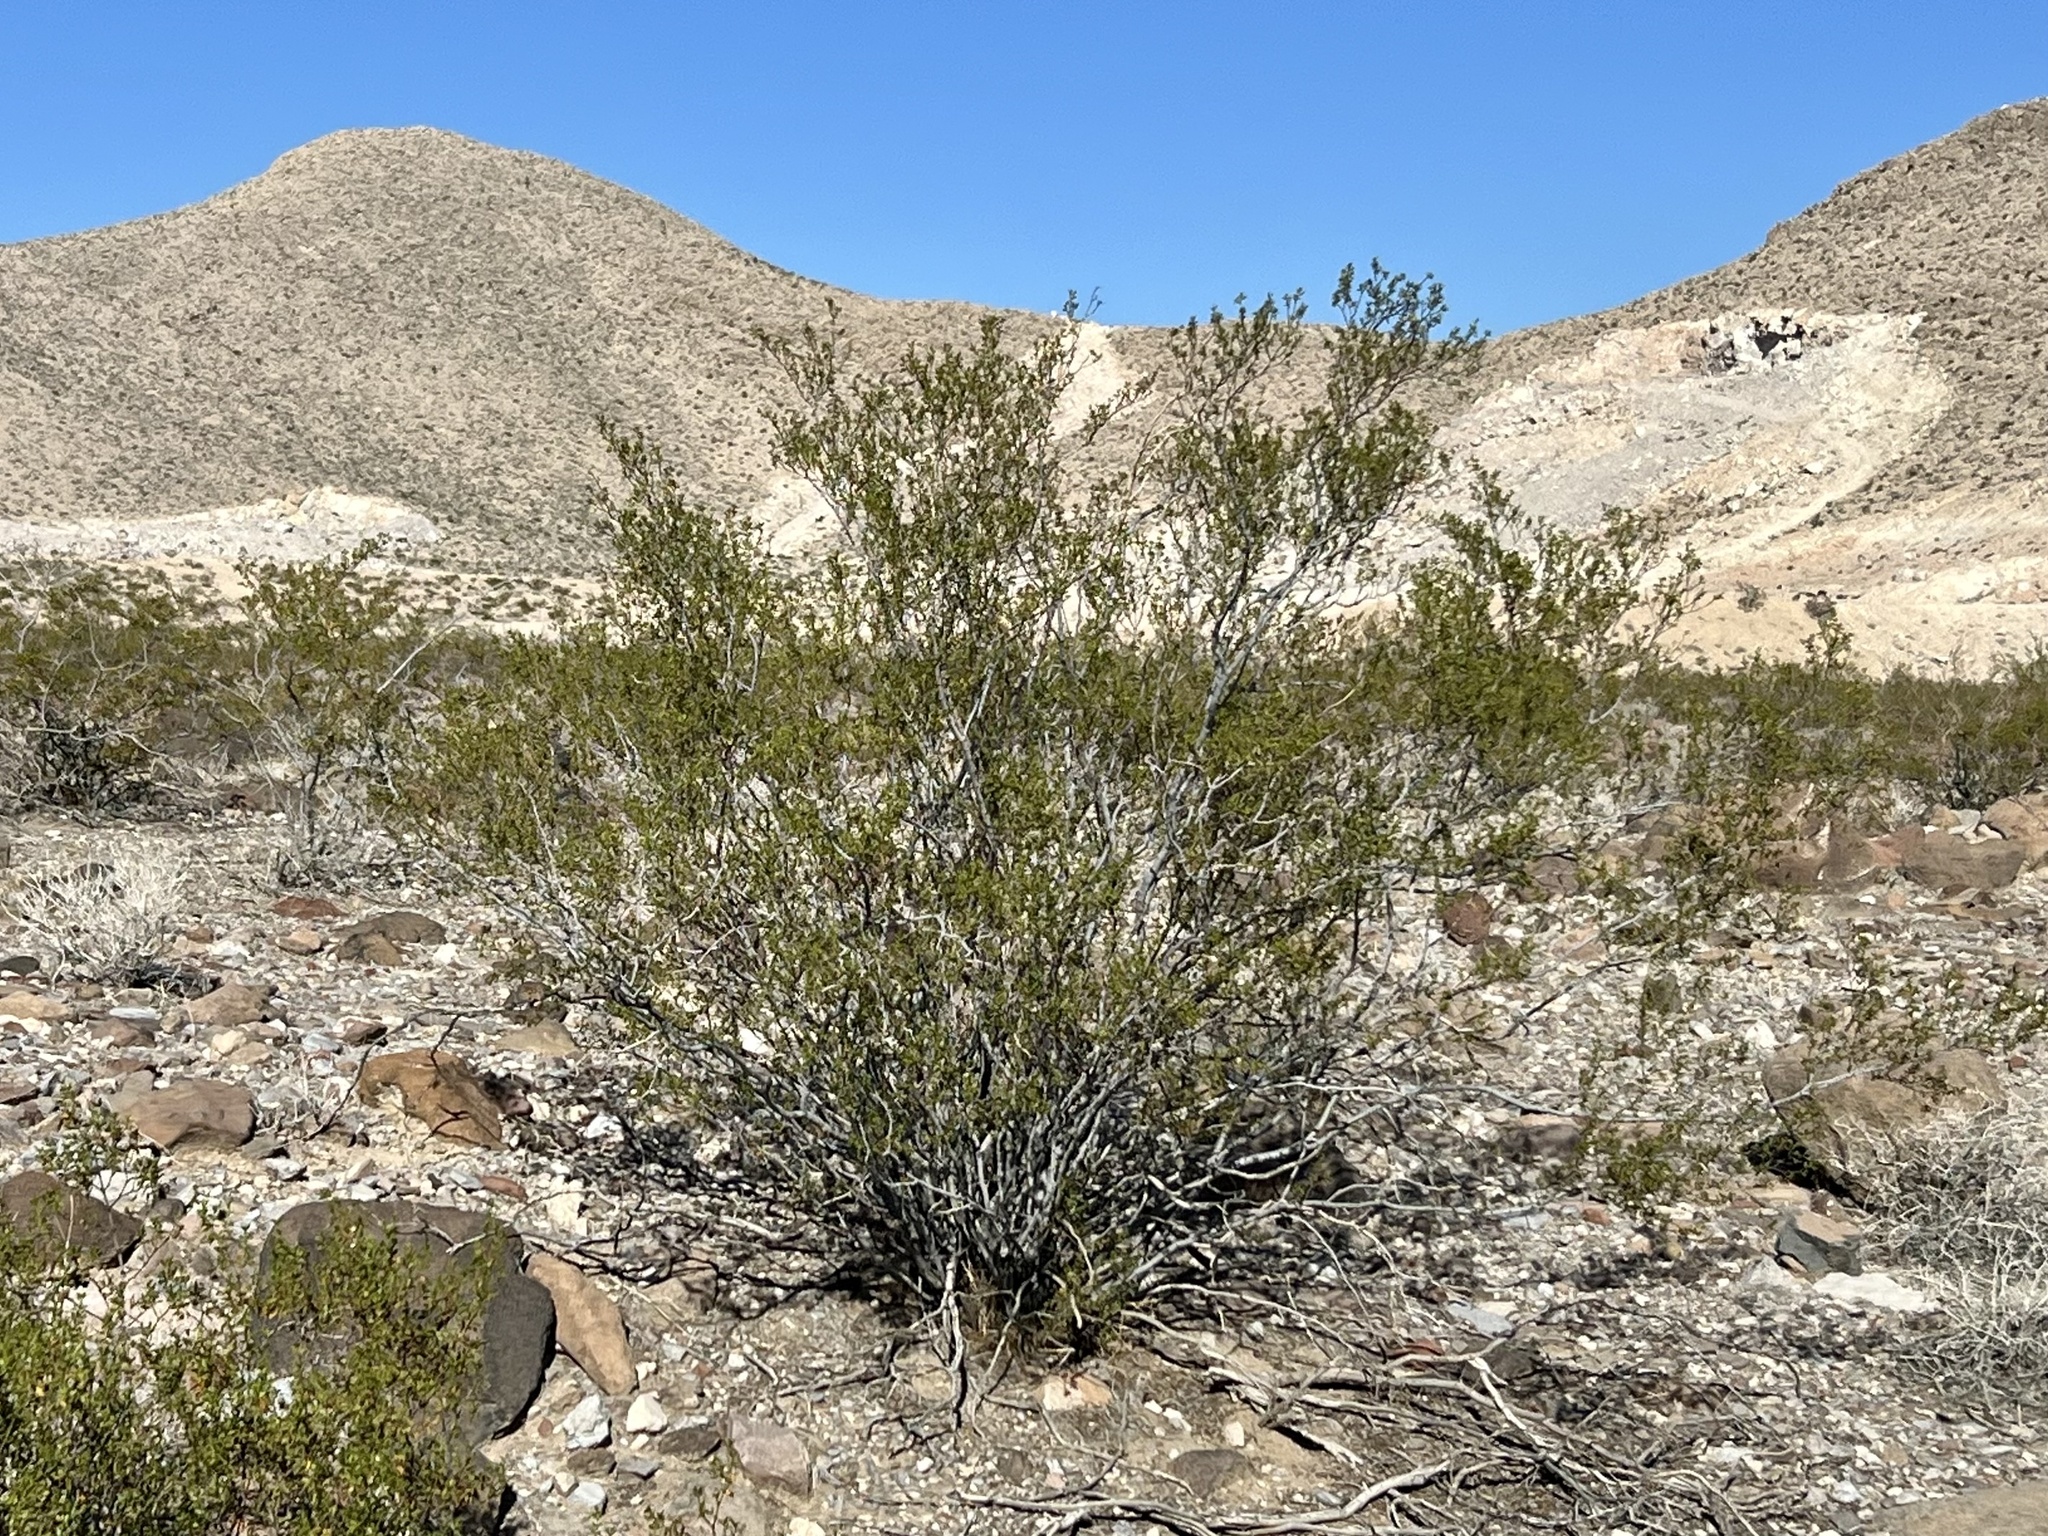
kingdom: Plantae
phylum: Tracheophyta
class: Magnoliopsida
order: Zygophyllales
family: Zygophyllaceae
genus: Larrea
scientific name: Larrea tridentata
